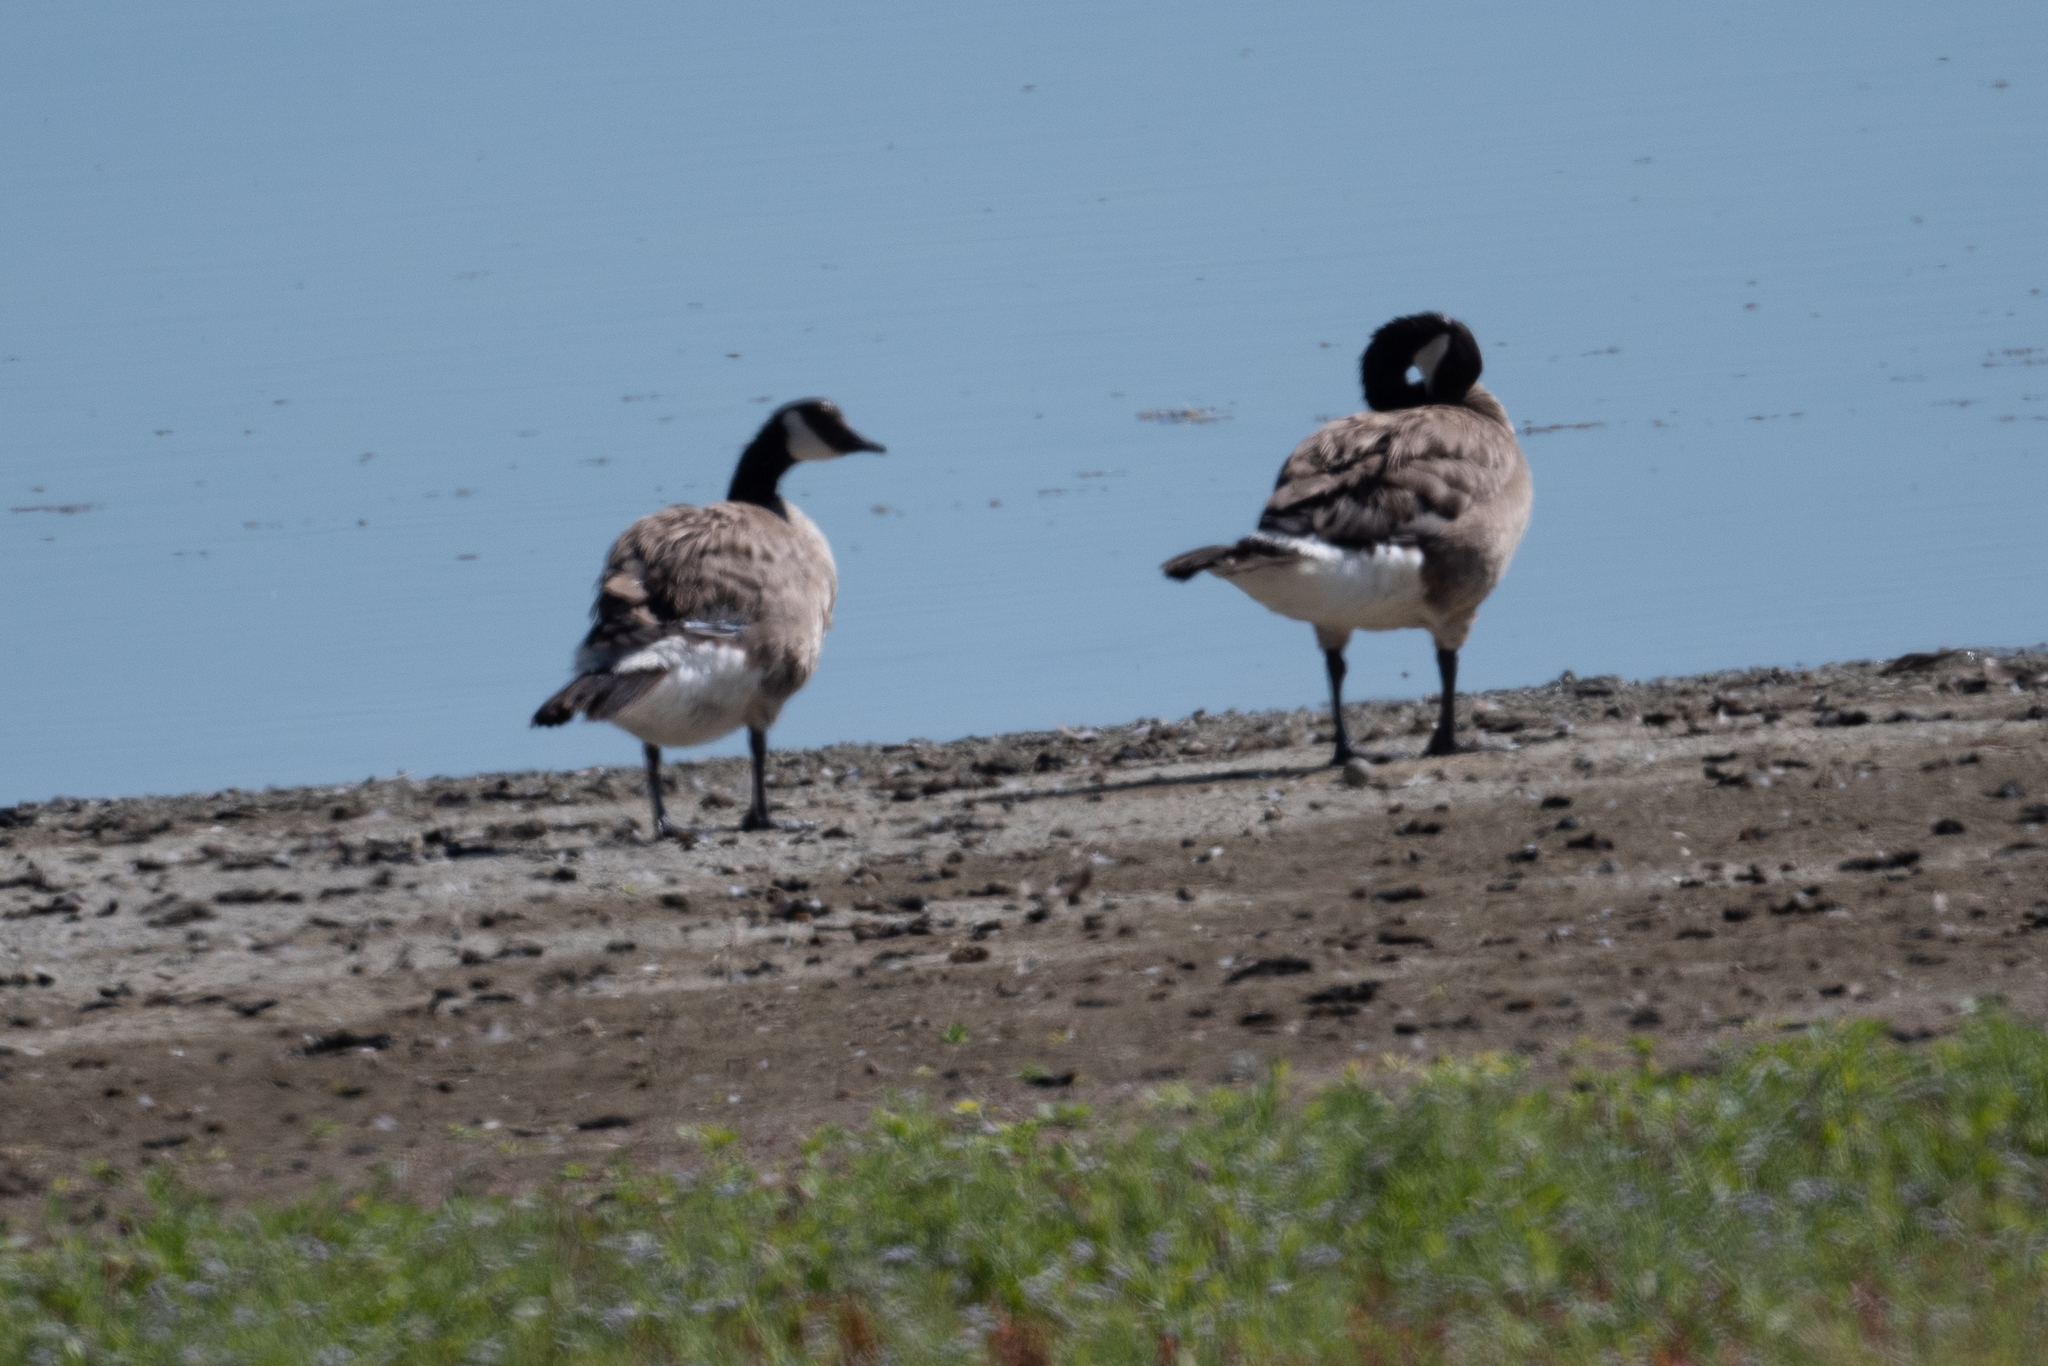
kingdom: Animalia
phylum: Chordata
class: Aves
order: Anseriformes
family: Anatidae
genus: Branta
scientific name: Branta canadensis
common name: Canada goose
